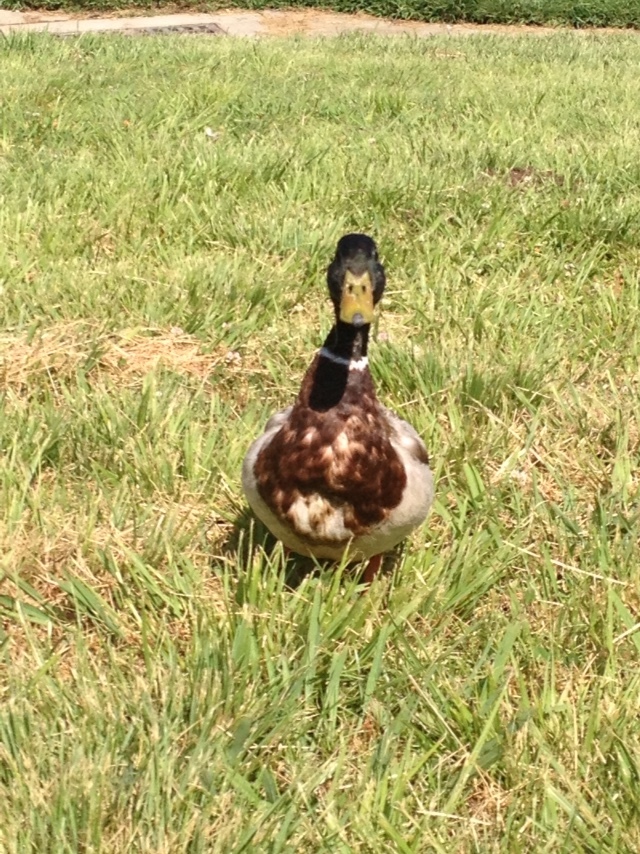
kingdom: Animalia
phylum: Chordata
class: Aves
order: Anseriformes
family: Anatidae
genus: Anas
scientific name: Anas platyrhynchos
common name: Mallard
